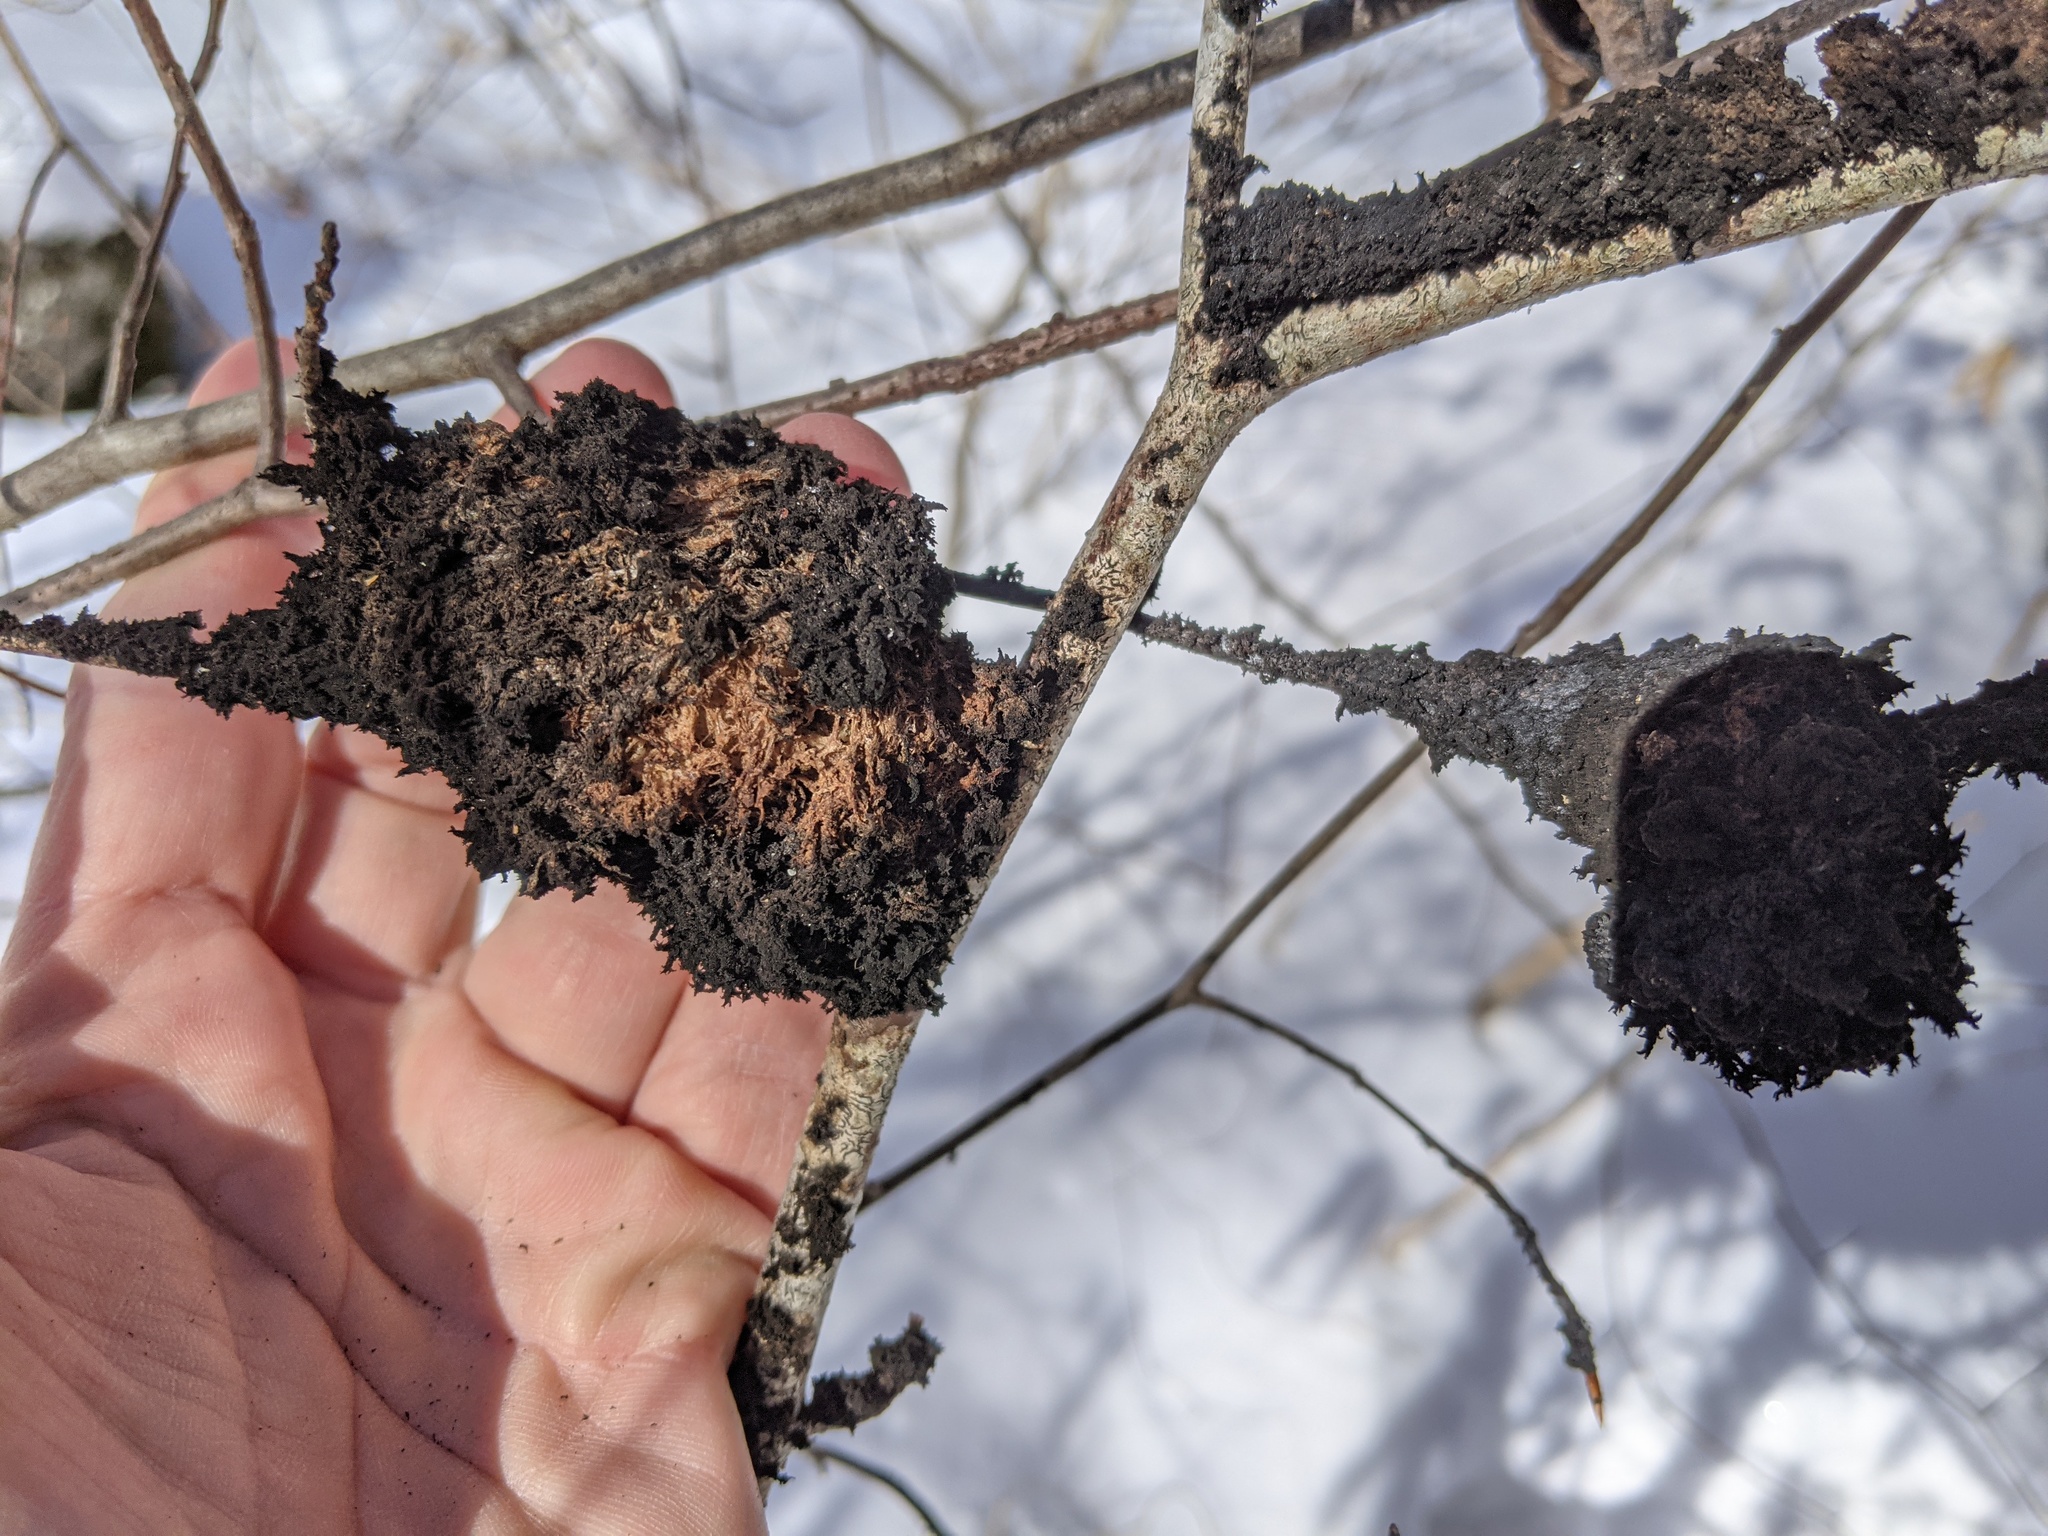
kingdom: Fungi
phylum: Ascomycota
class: Dothideomycetes
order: Capnodiales
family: Capnodiaceae
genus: Scorias
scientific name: Scorias spongiosa
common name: Black sooty mold
